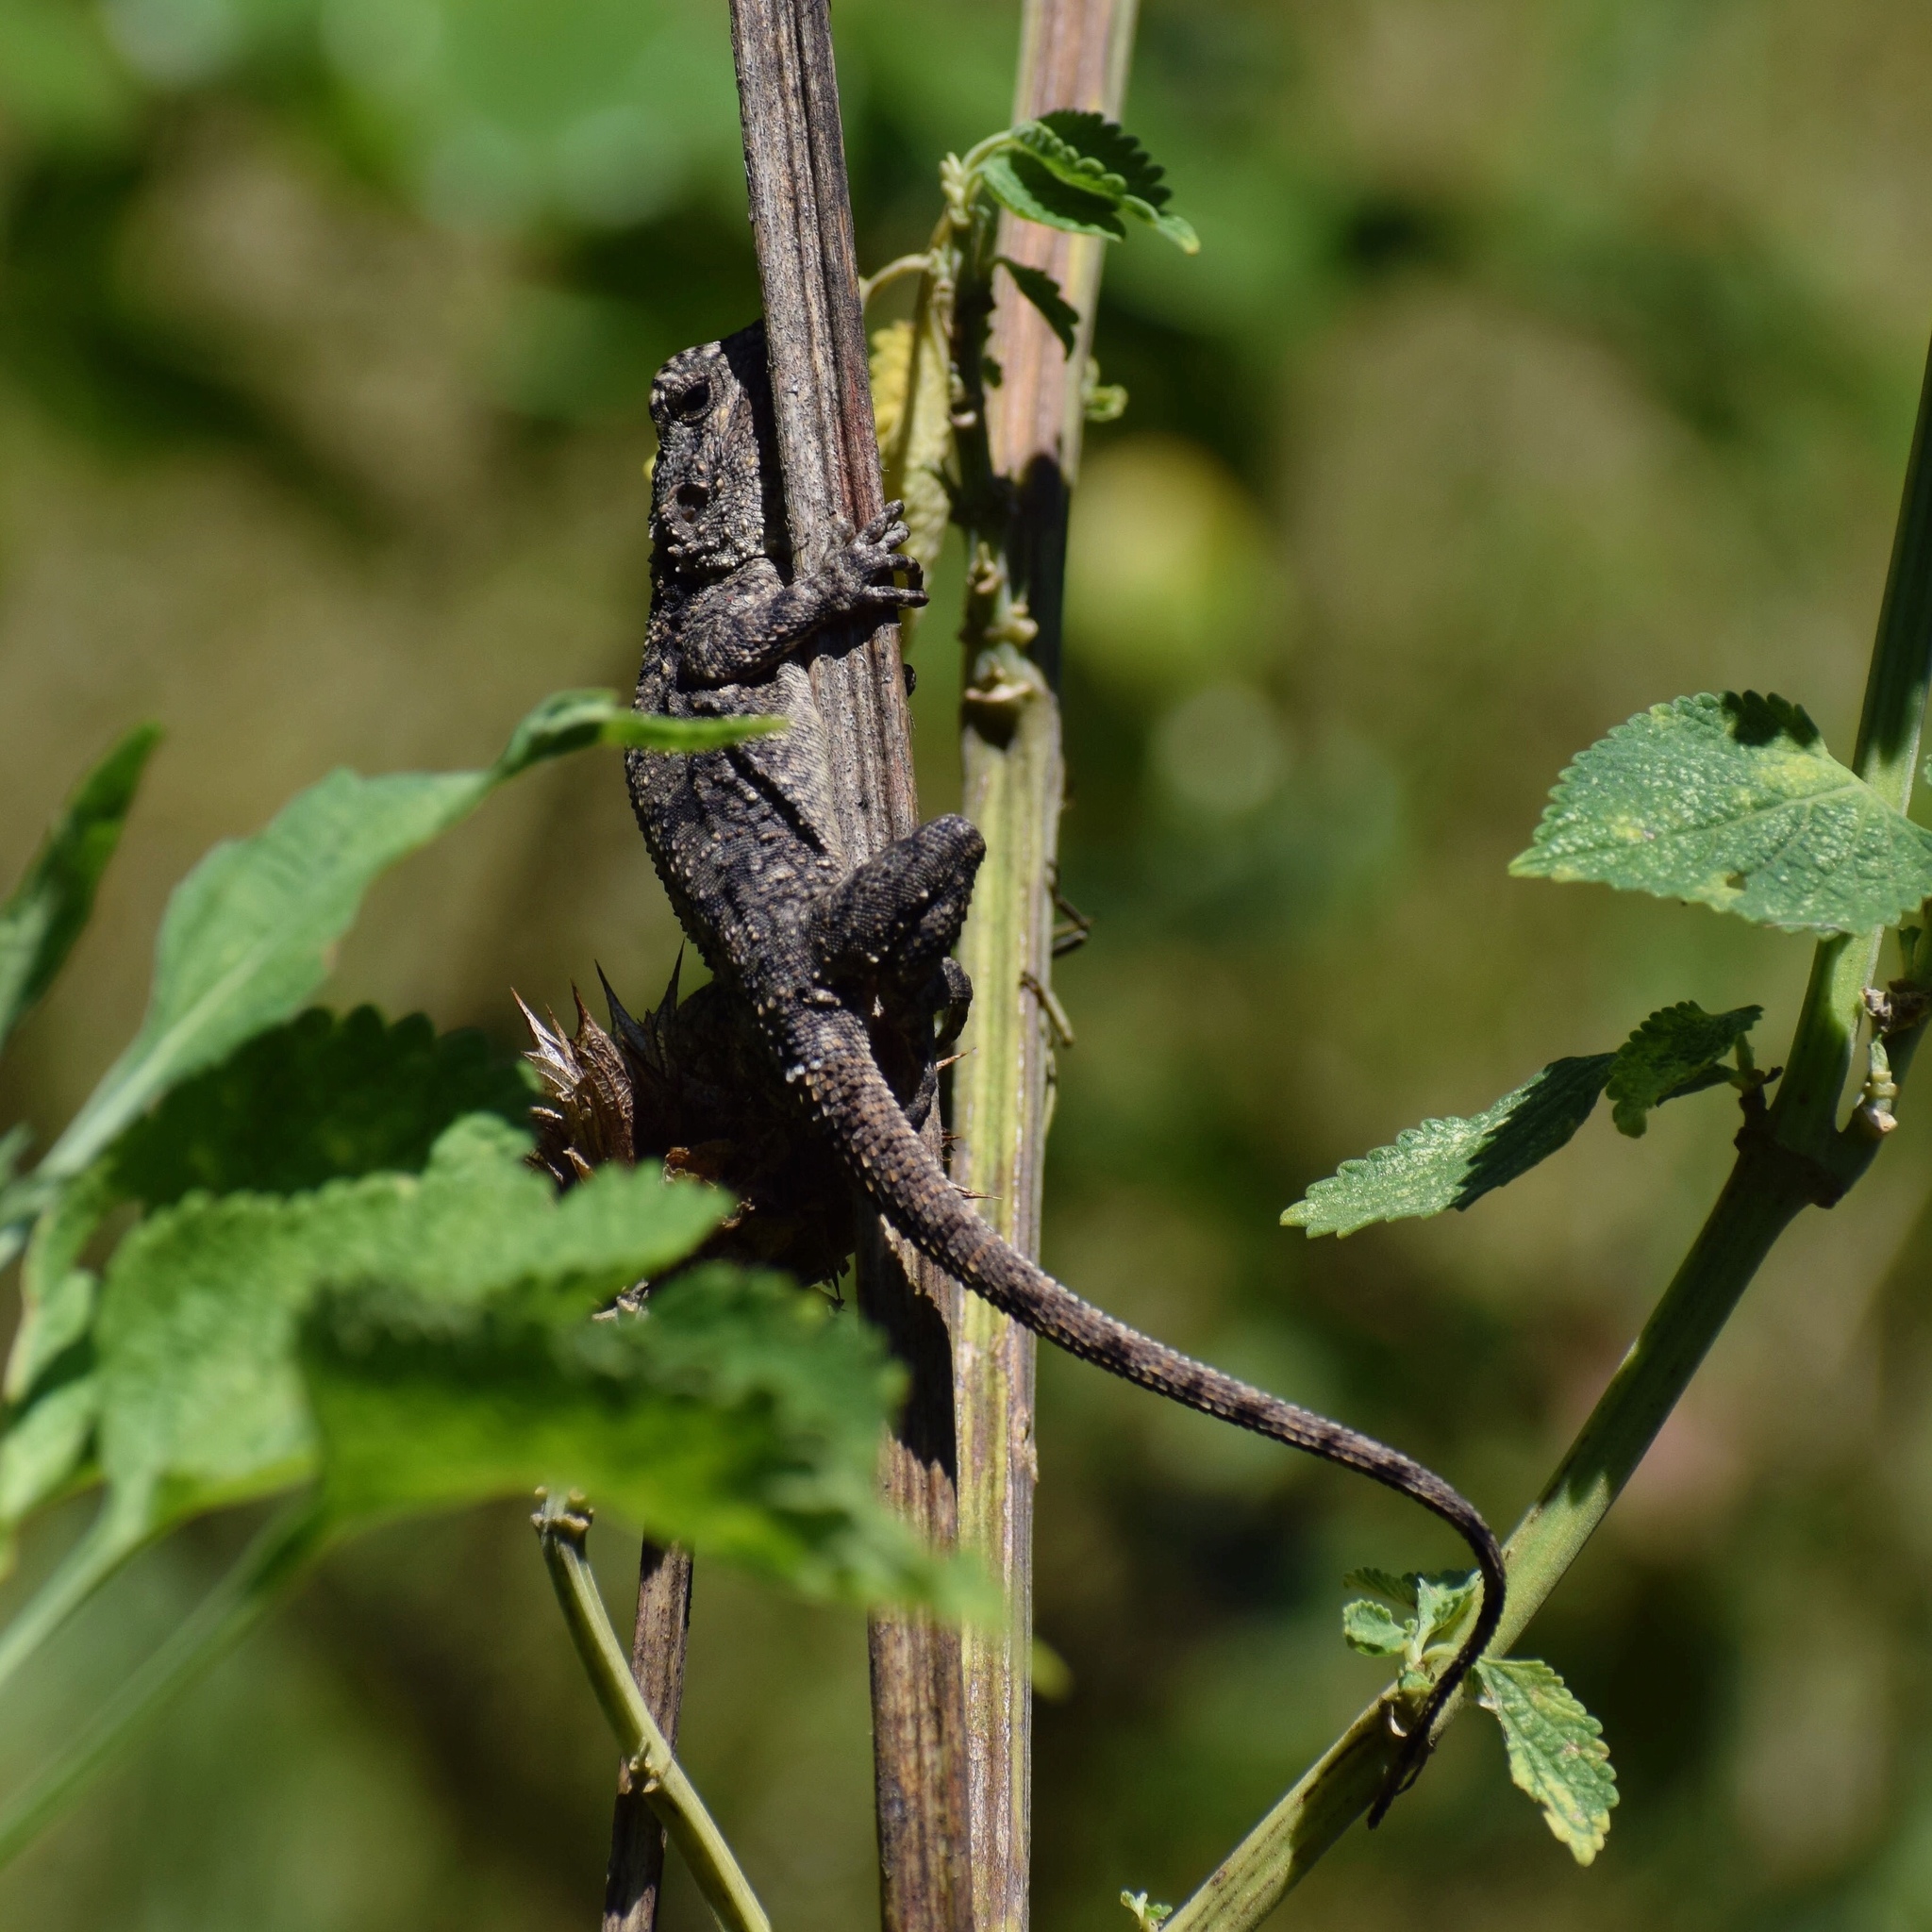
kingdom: Animalia
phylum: Chordata
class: Squamata
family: Agamidae
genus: Acanthocercus
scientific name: Acanthocercus atricollis
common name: Southern tree agama
